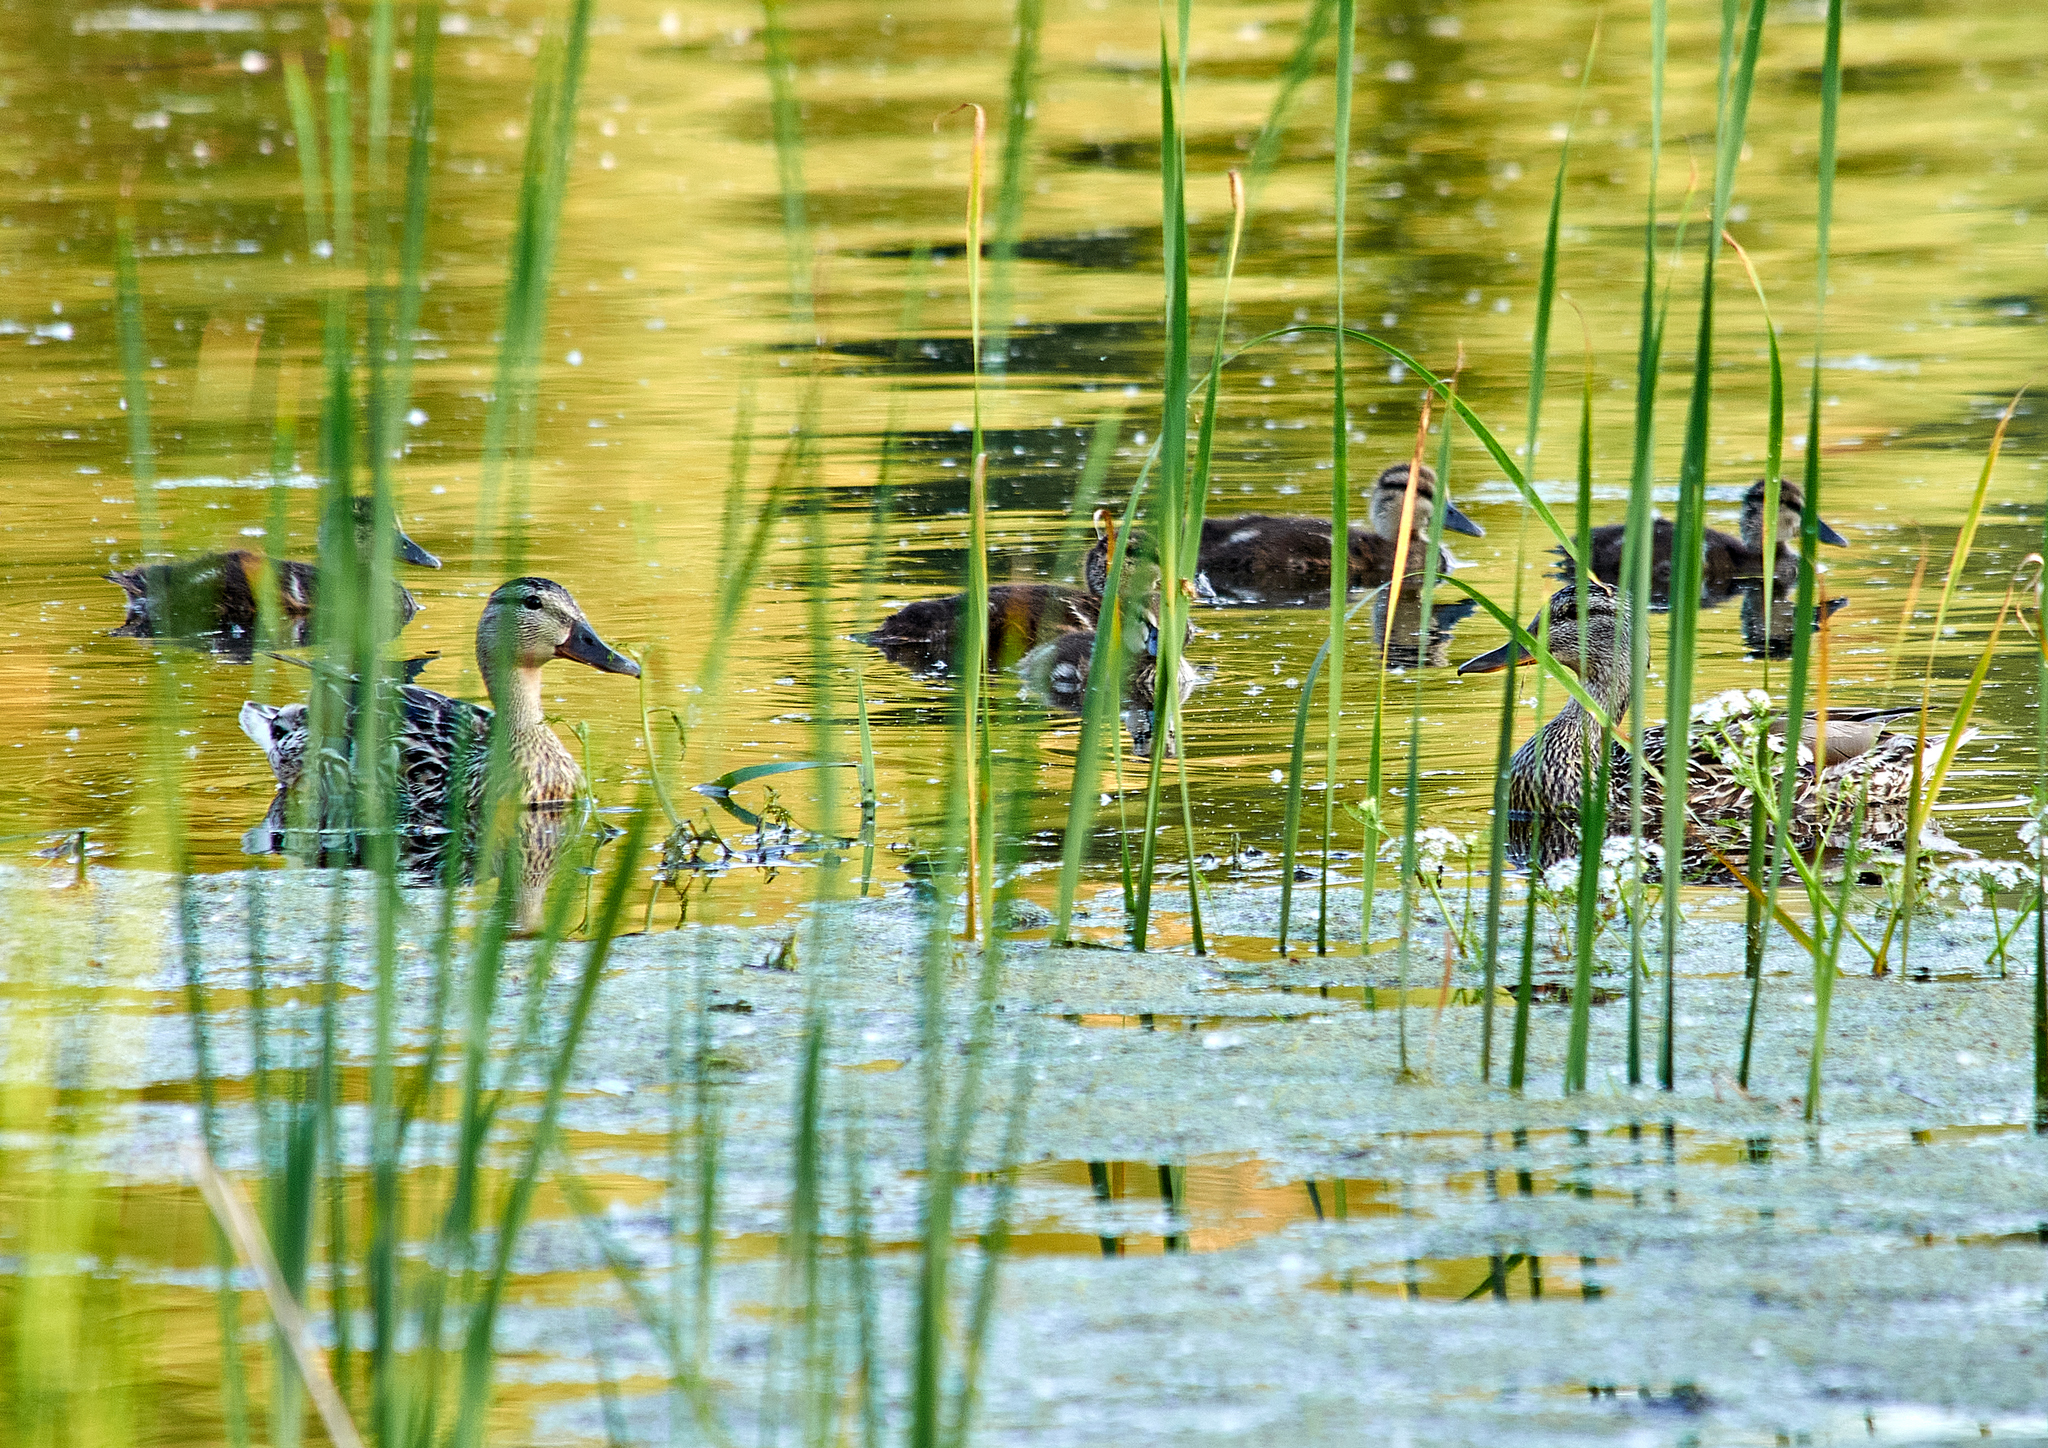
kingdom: Animalia
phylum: Chordata
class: Aves
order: Anseriformes
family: Anatidae
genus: Anas
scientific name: Anas platyrhynchos
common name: Mallard
